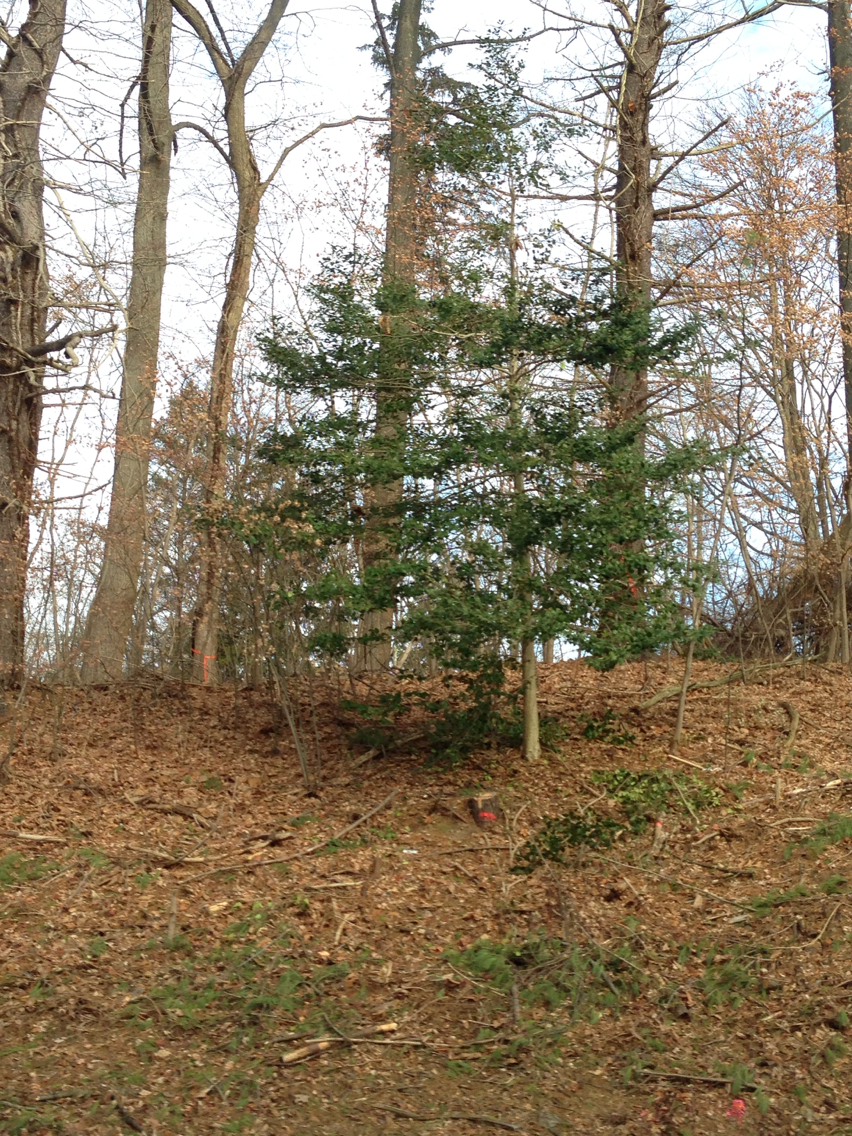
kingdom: Plantae
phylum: Tracheophyta
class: Magnoliopsida
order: Aquifoliales
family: Aquifoliaceae
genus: Ilex
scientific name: Ilex opaca
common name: American holly
